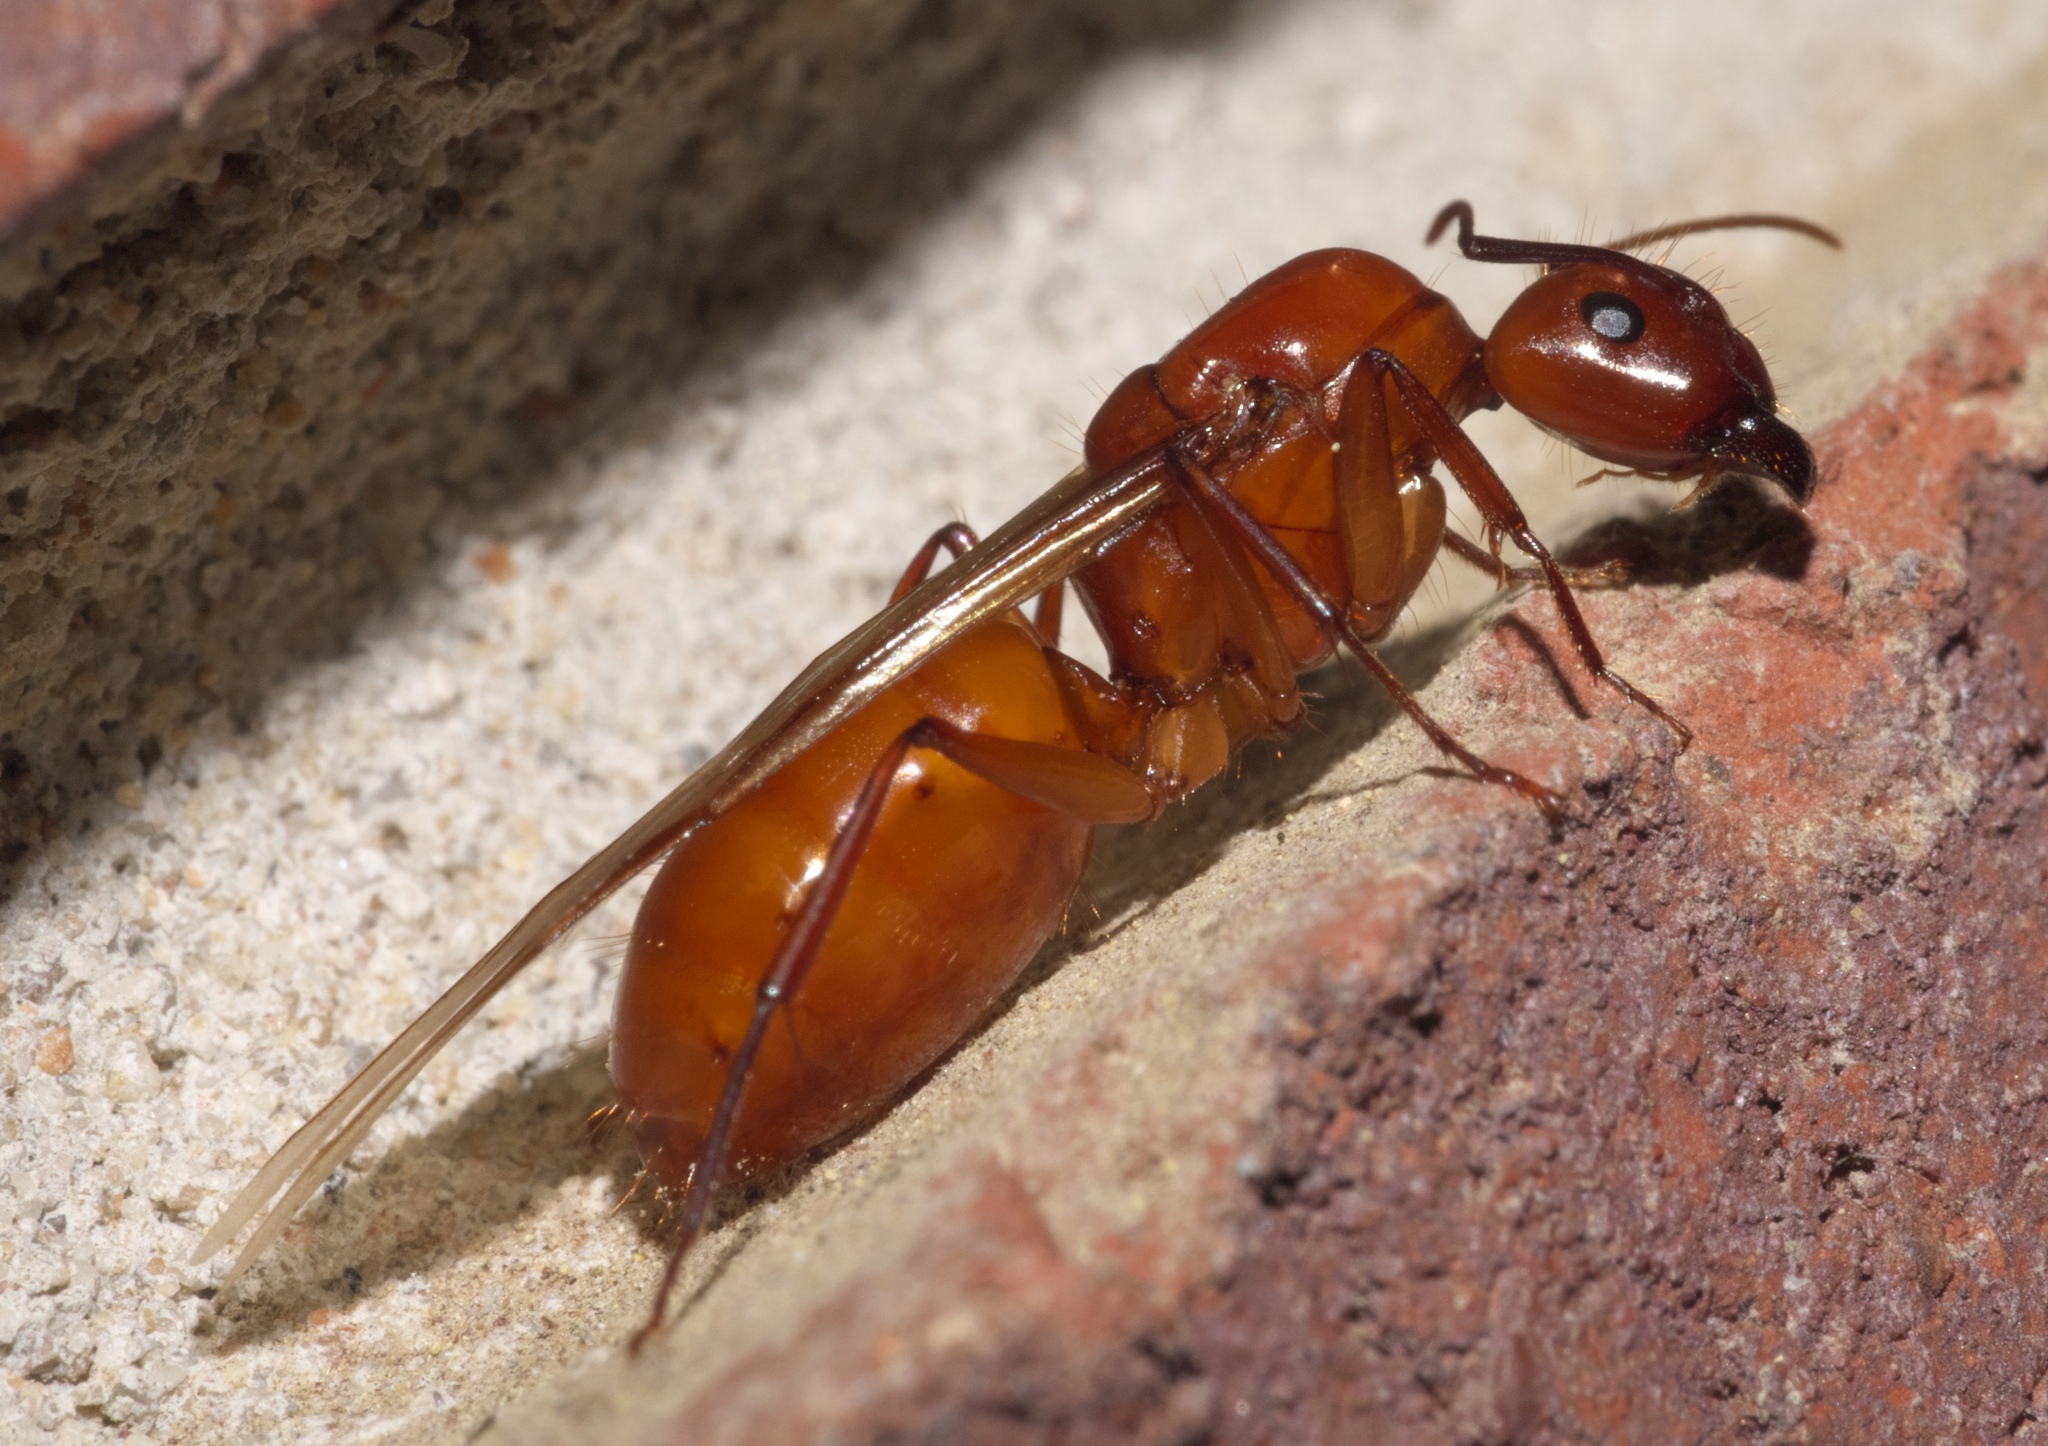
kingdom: Animalia
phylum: Arthropoda
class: Insecta
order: Hymenoptera
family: Formicidae
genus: Camponotus
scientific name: Camponotus castaneus
